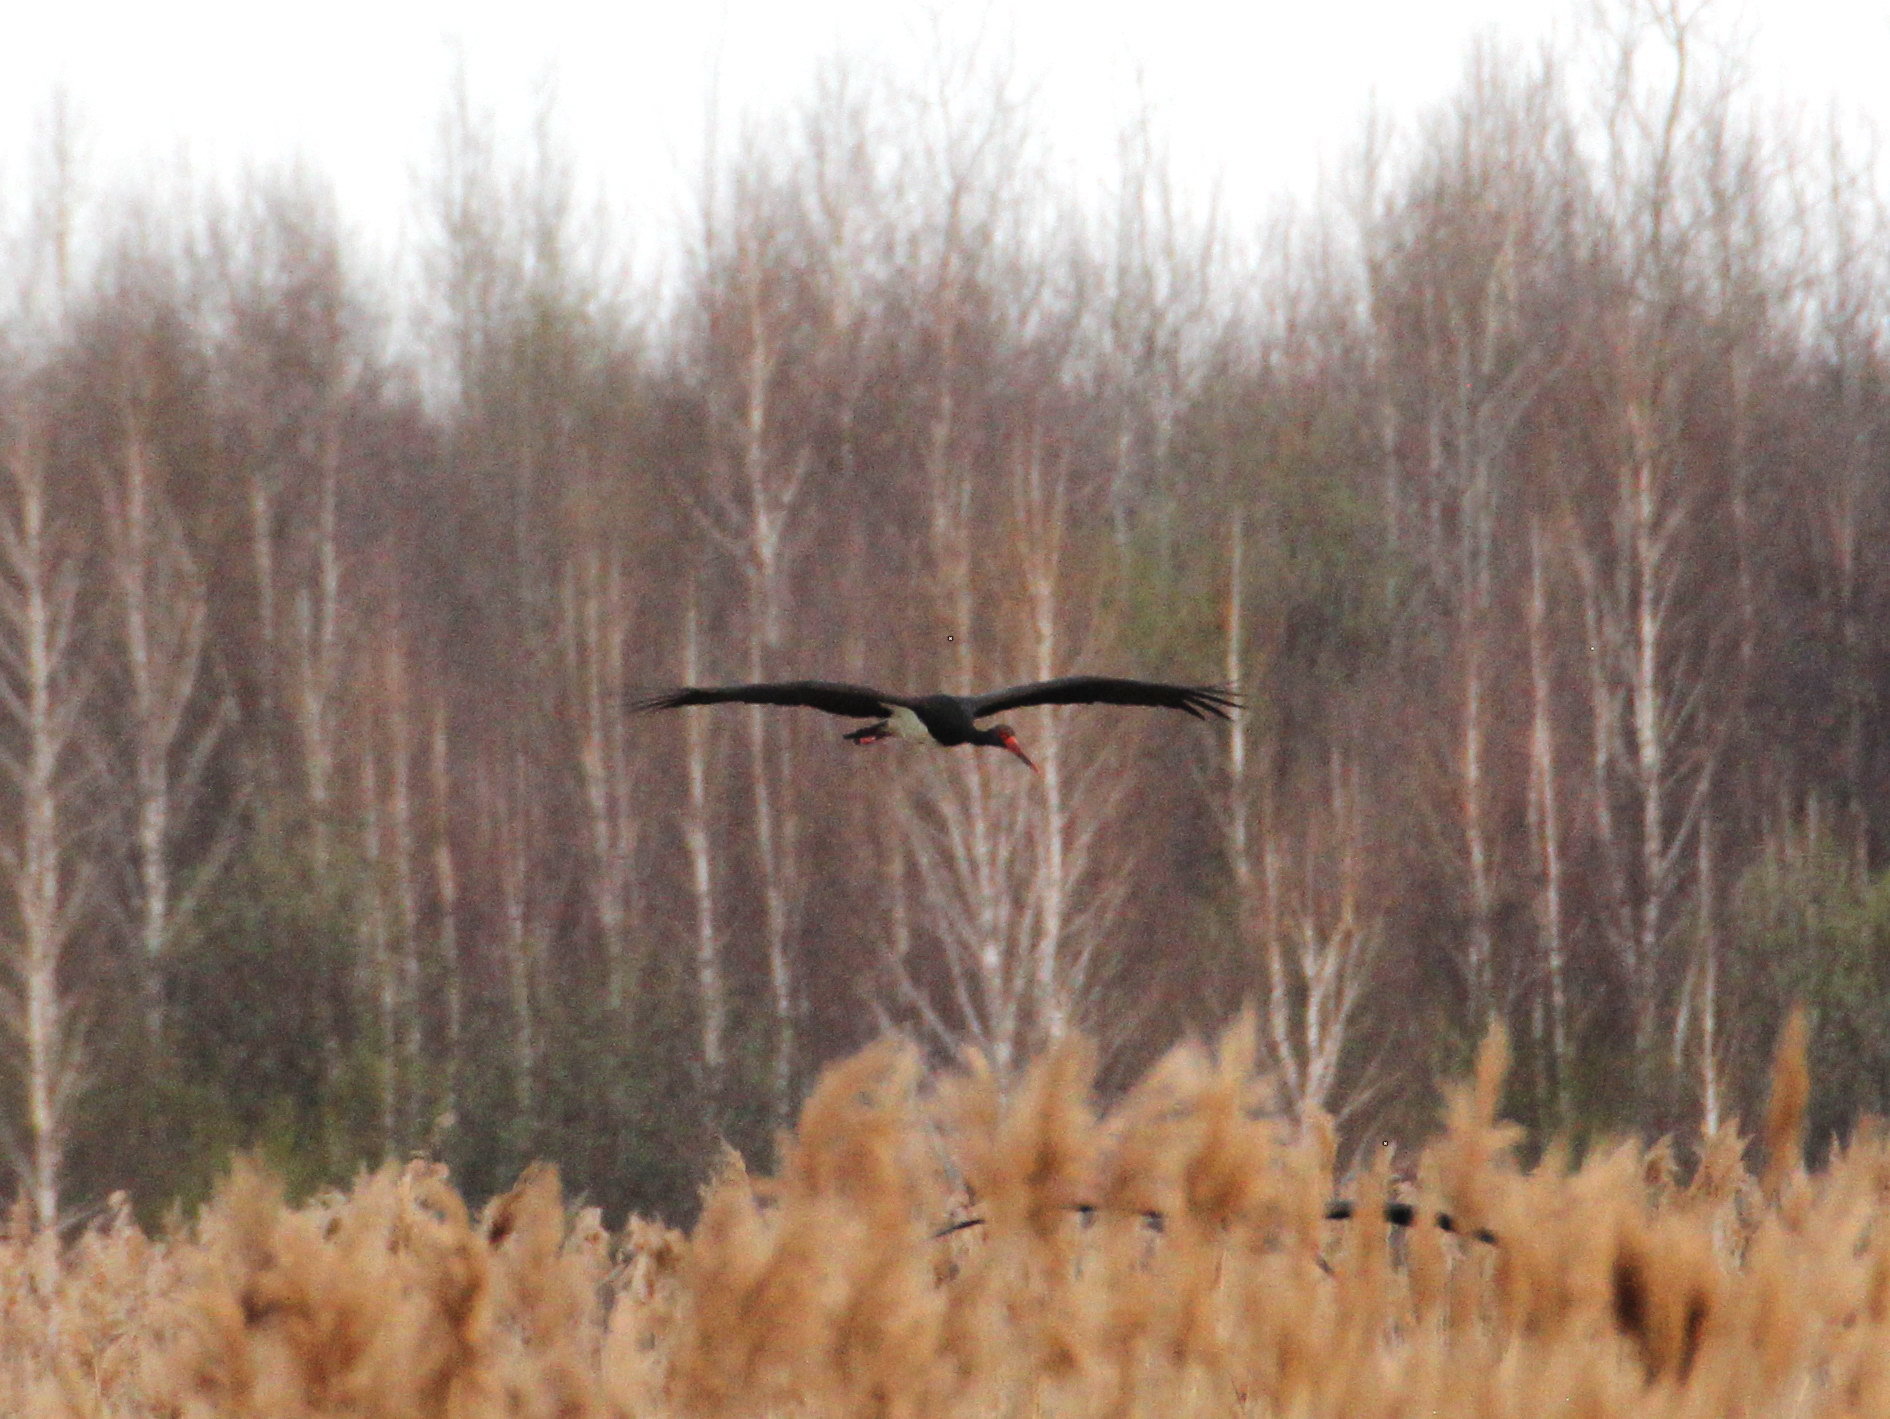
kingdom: Animalia
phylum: Chordata
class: Aves
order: Ciconiiformes
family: Ciconiidae
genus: Ciconia
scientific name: Ciconia nigra
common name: Black stork
